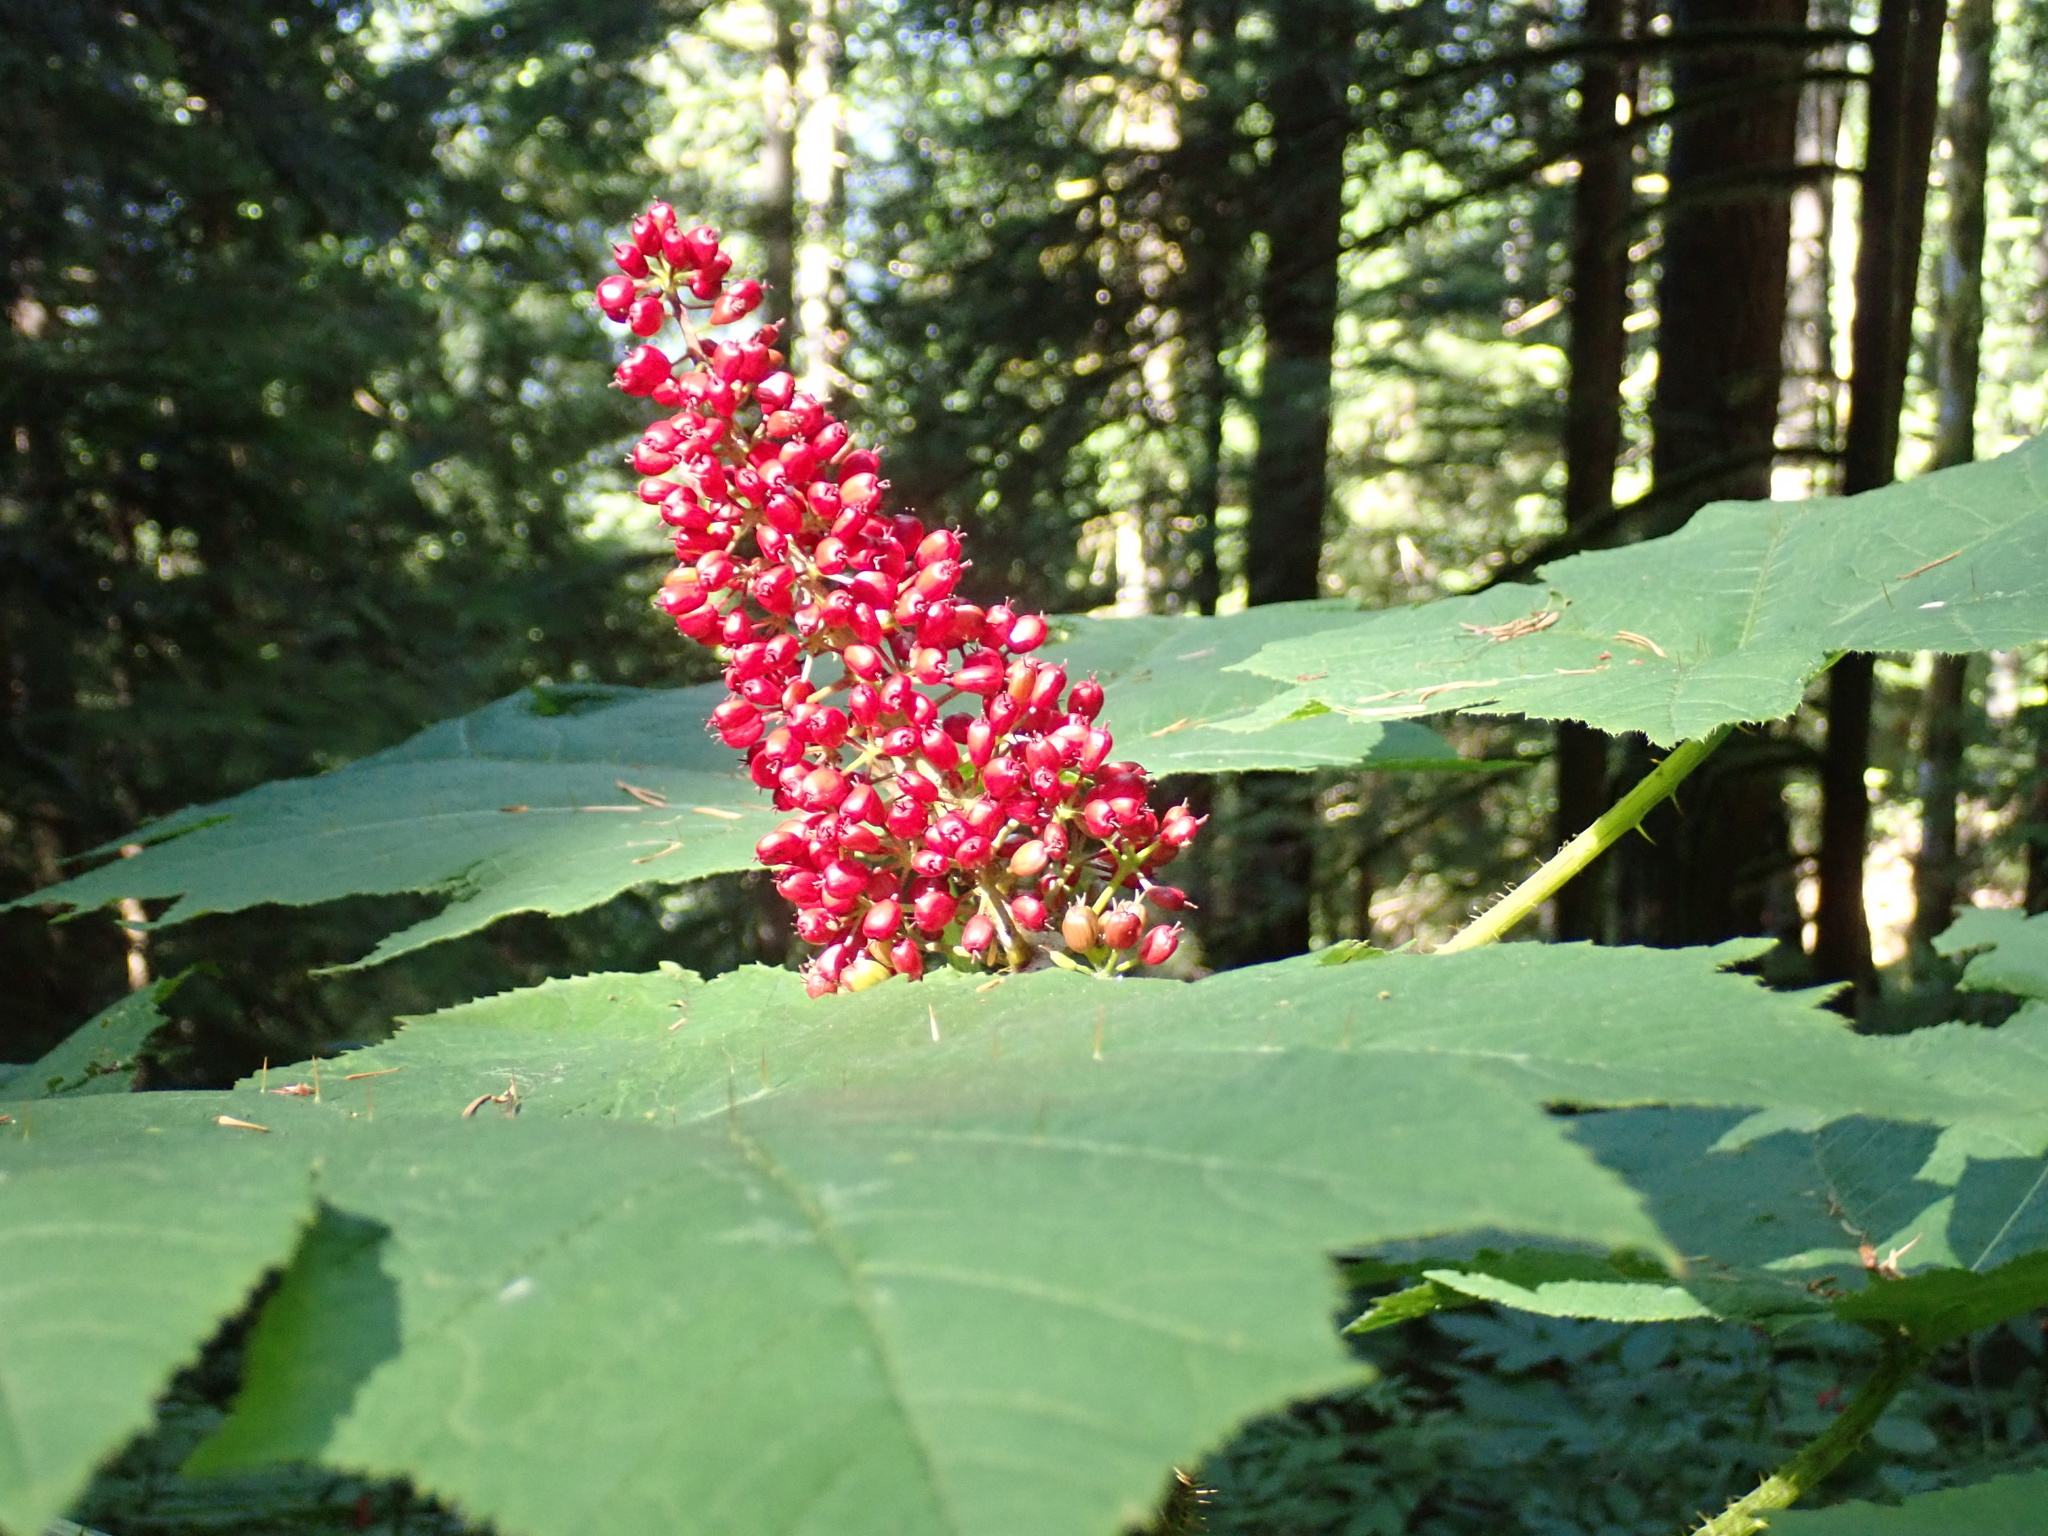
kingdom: Plantae
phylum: Tracheophyta
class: Magnoliopsida
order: Apiales
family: Araliaceae
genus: Oplopanax
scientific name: Oplopanax horridus
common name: Devil's walking-stick
